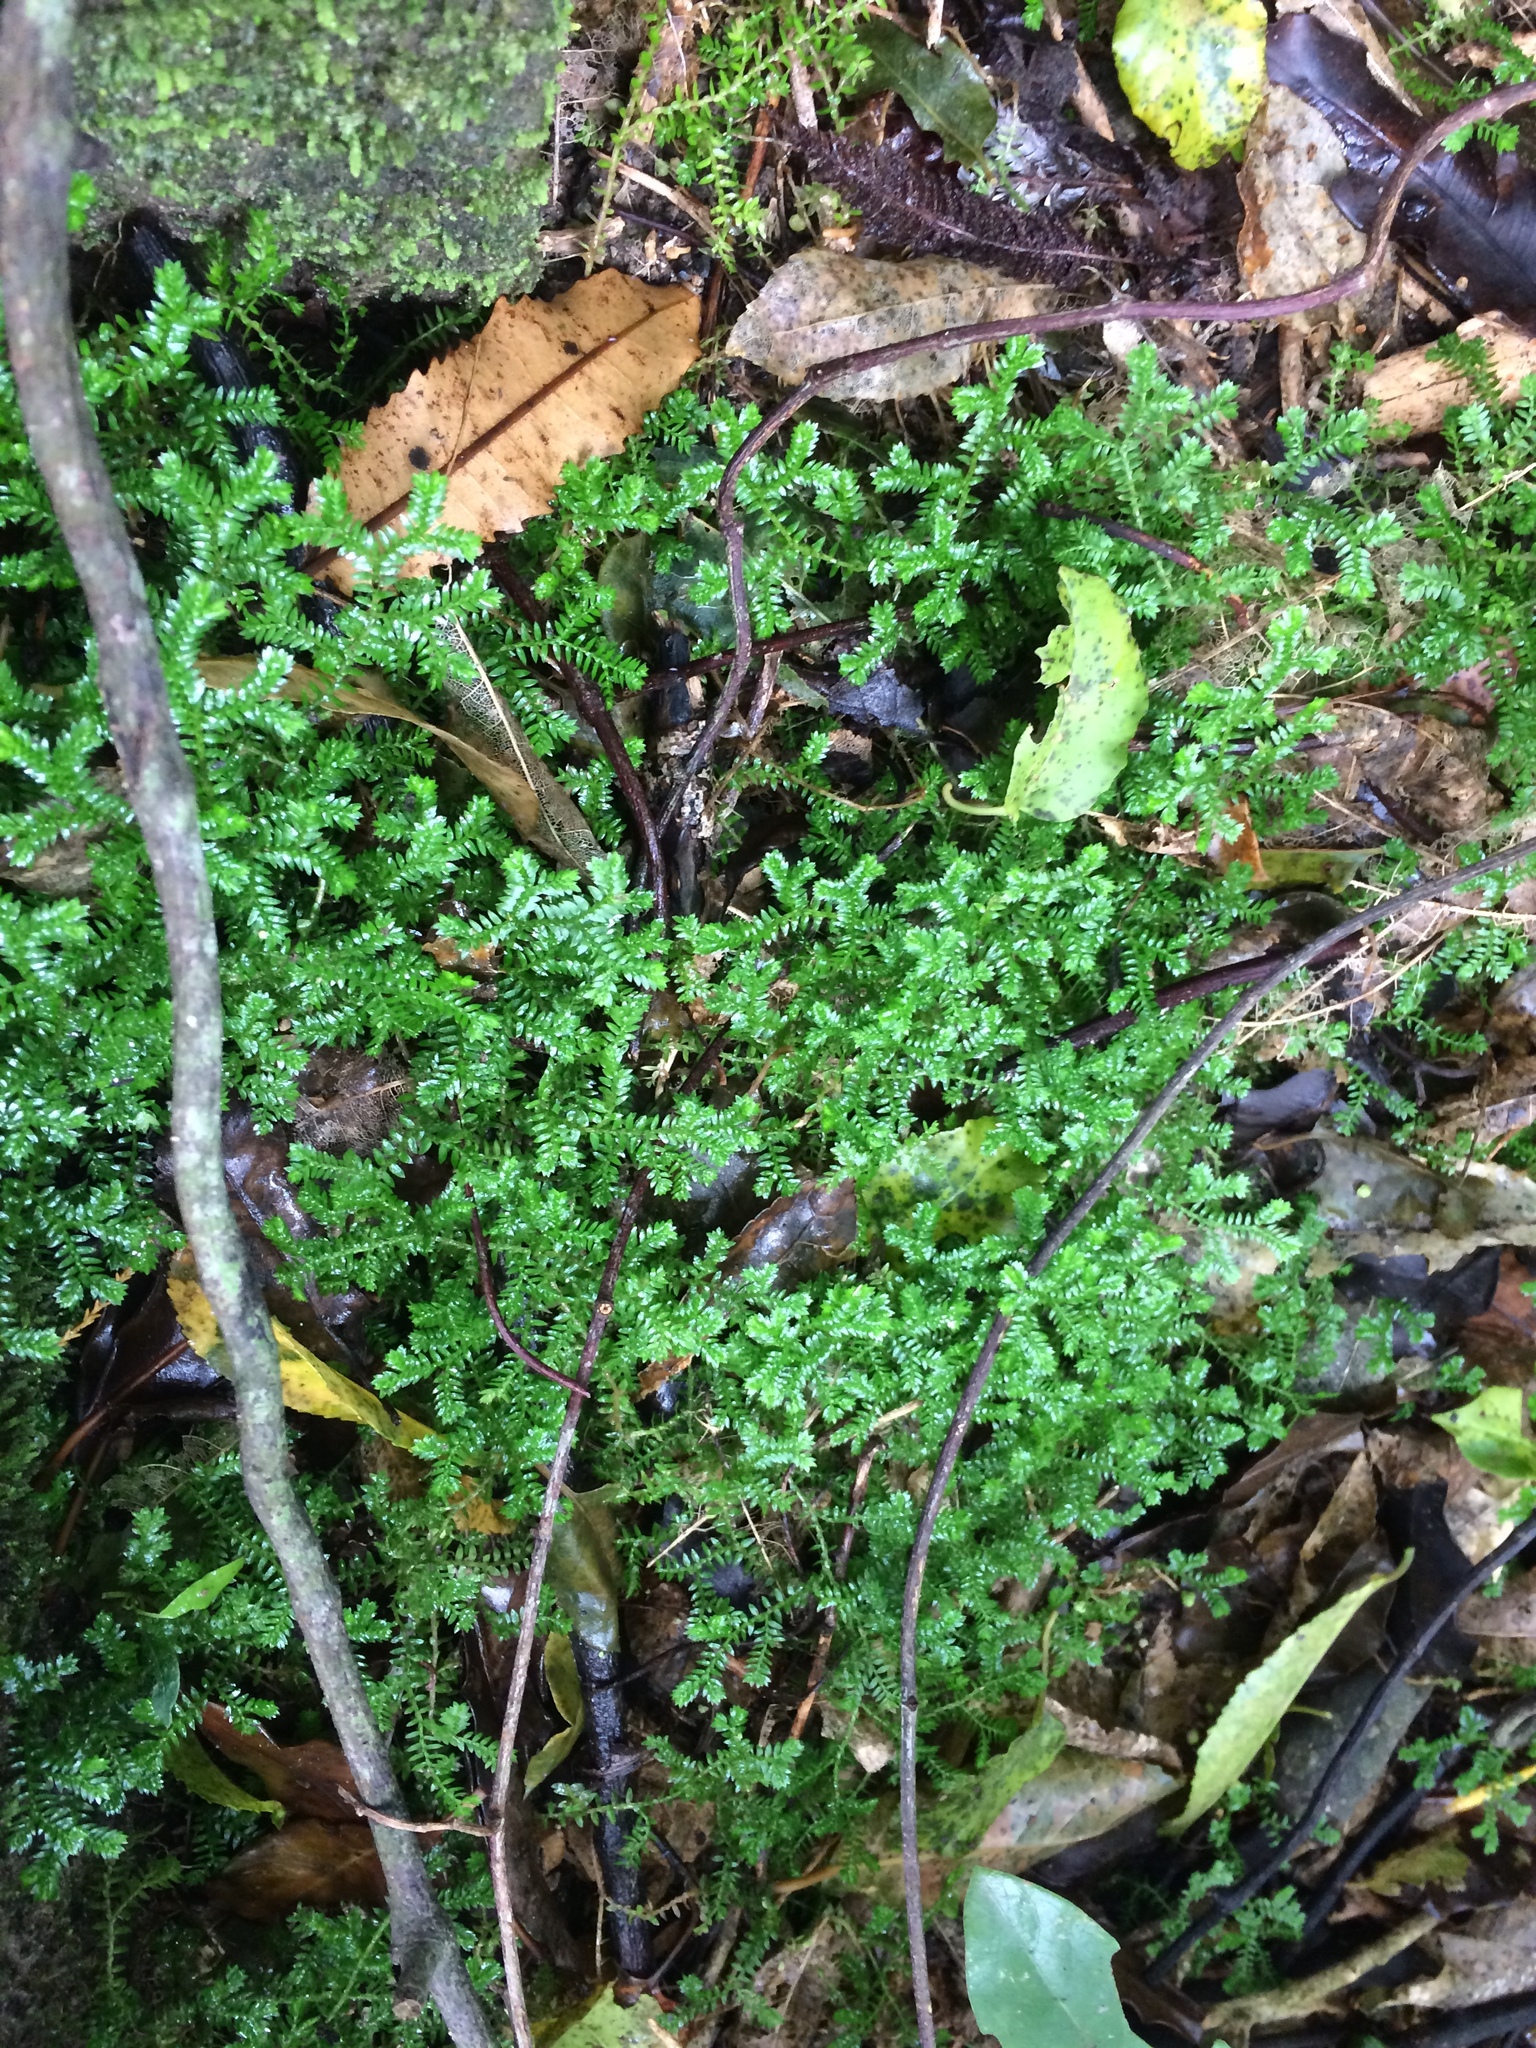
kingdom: Plantae
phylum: Tracheophyta
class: Lycopodiopsida
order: Selaginellales
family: Selaginellaceae
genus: Selaginella
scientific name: Selaginella kraussiana
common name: Krauss' spikemoss
